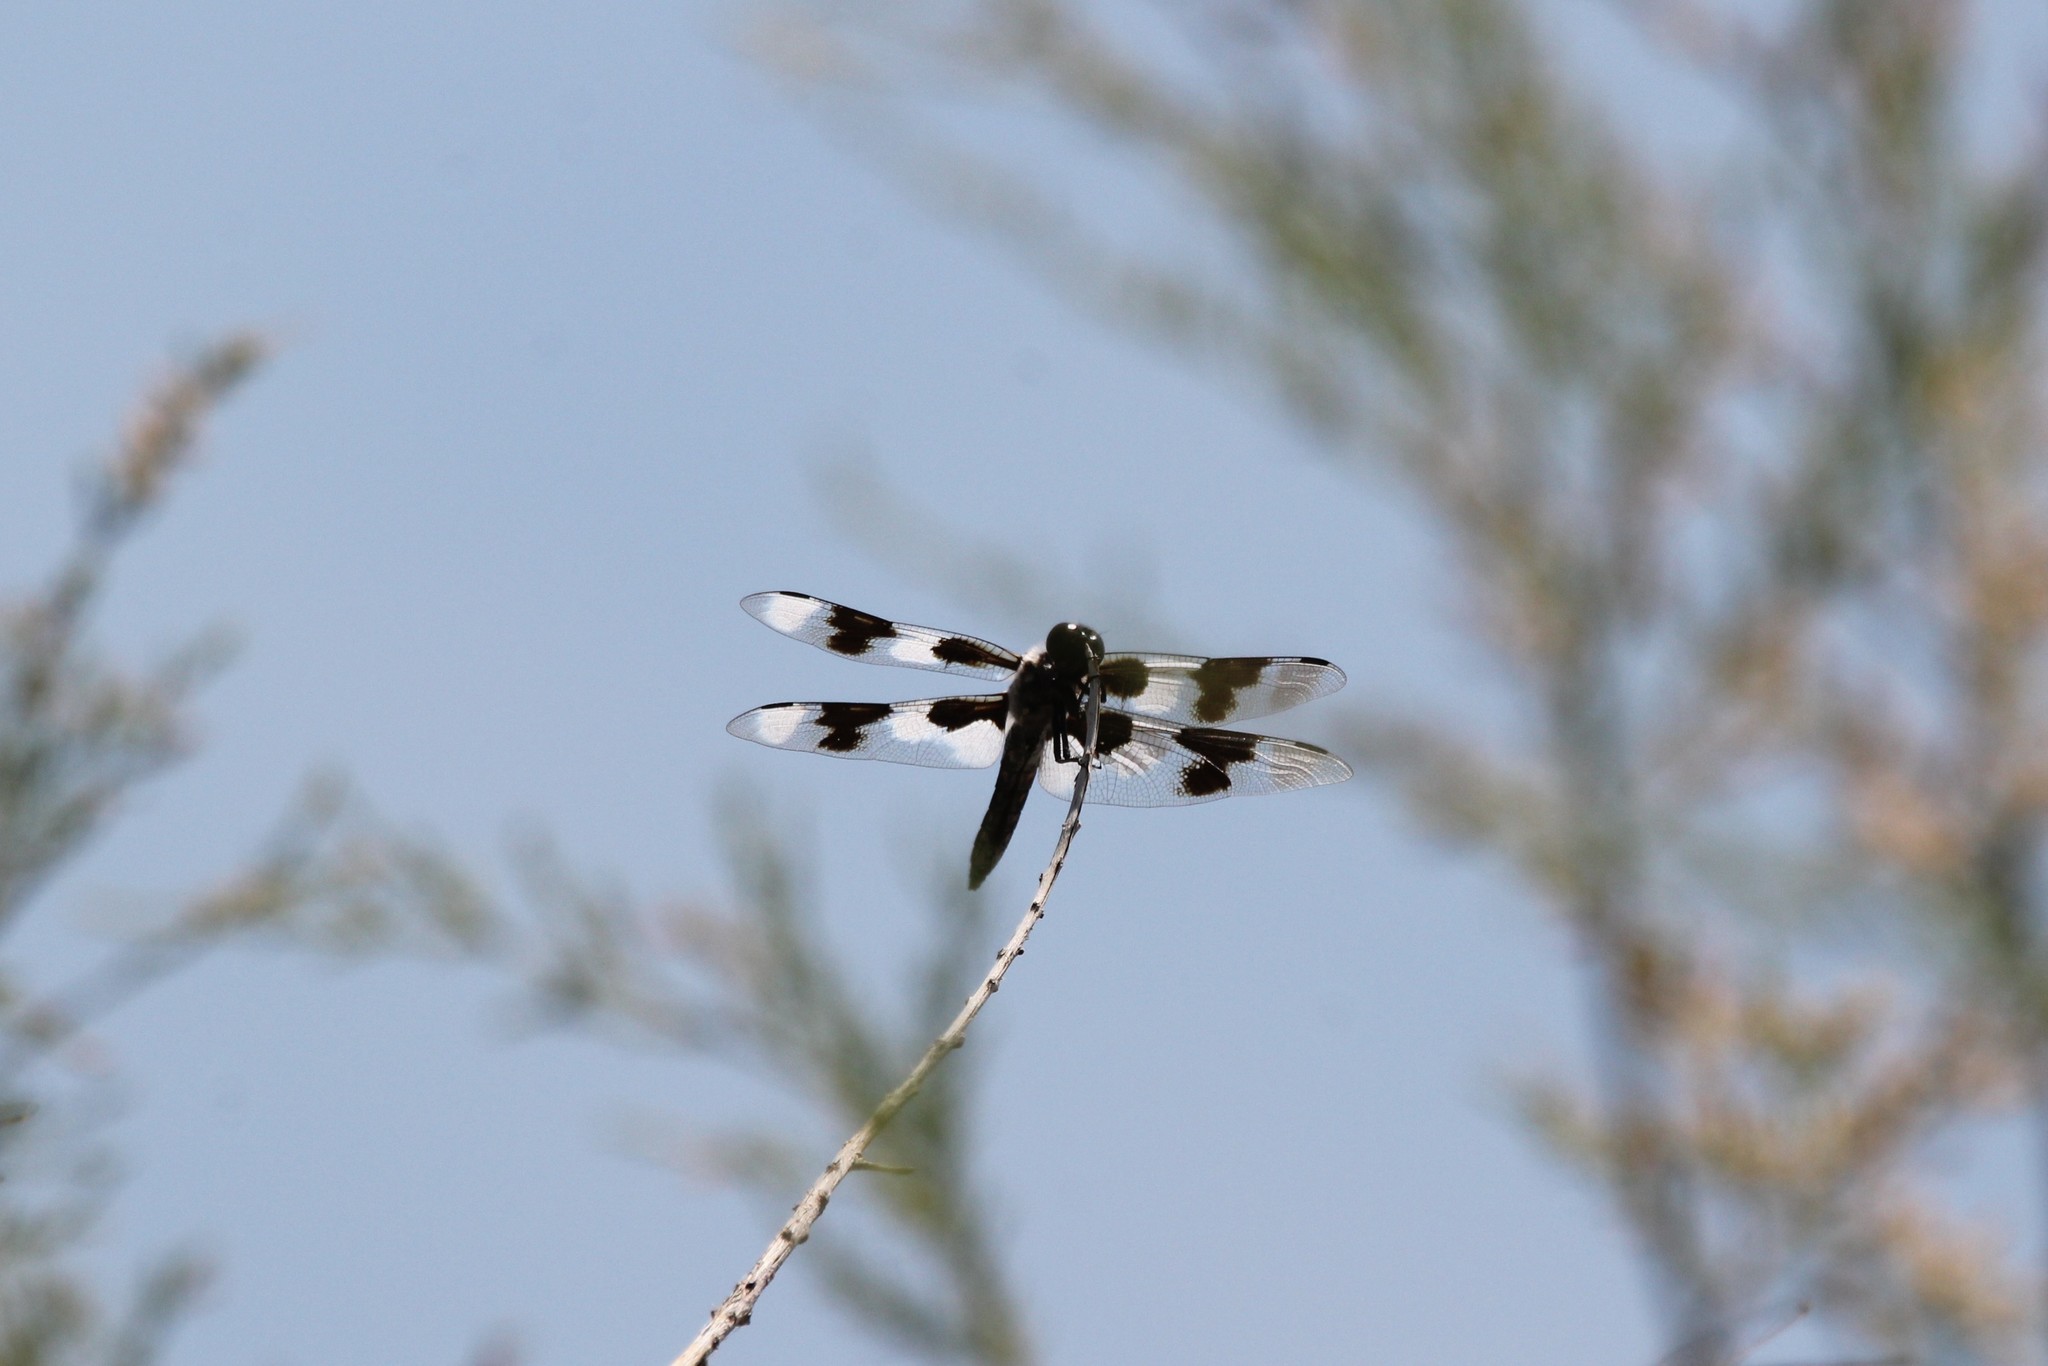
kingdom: Animalia
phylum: Arthropoda
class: Insecta
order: Odonata
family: Libellulidae
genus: Libellula
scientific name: Libellula forensis
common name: Eight-spotted skimmer
